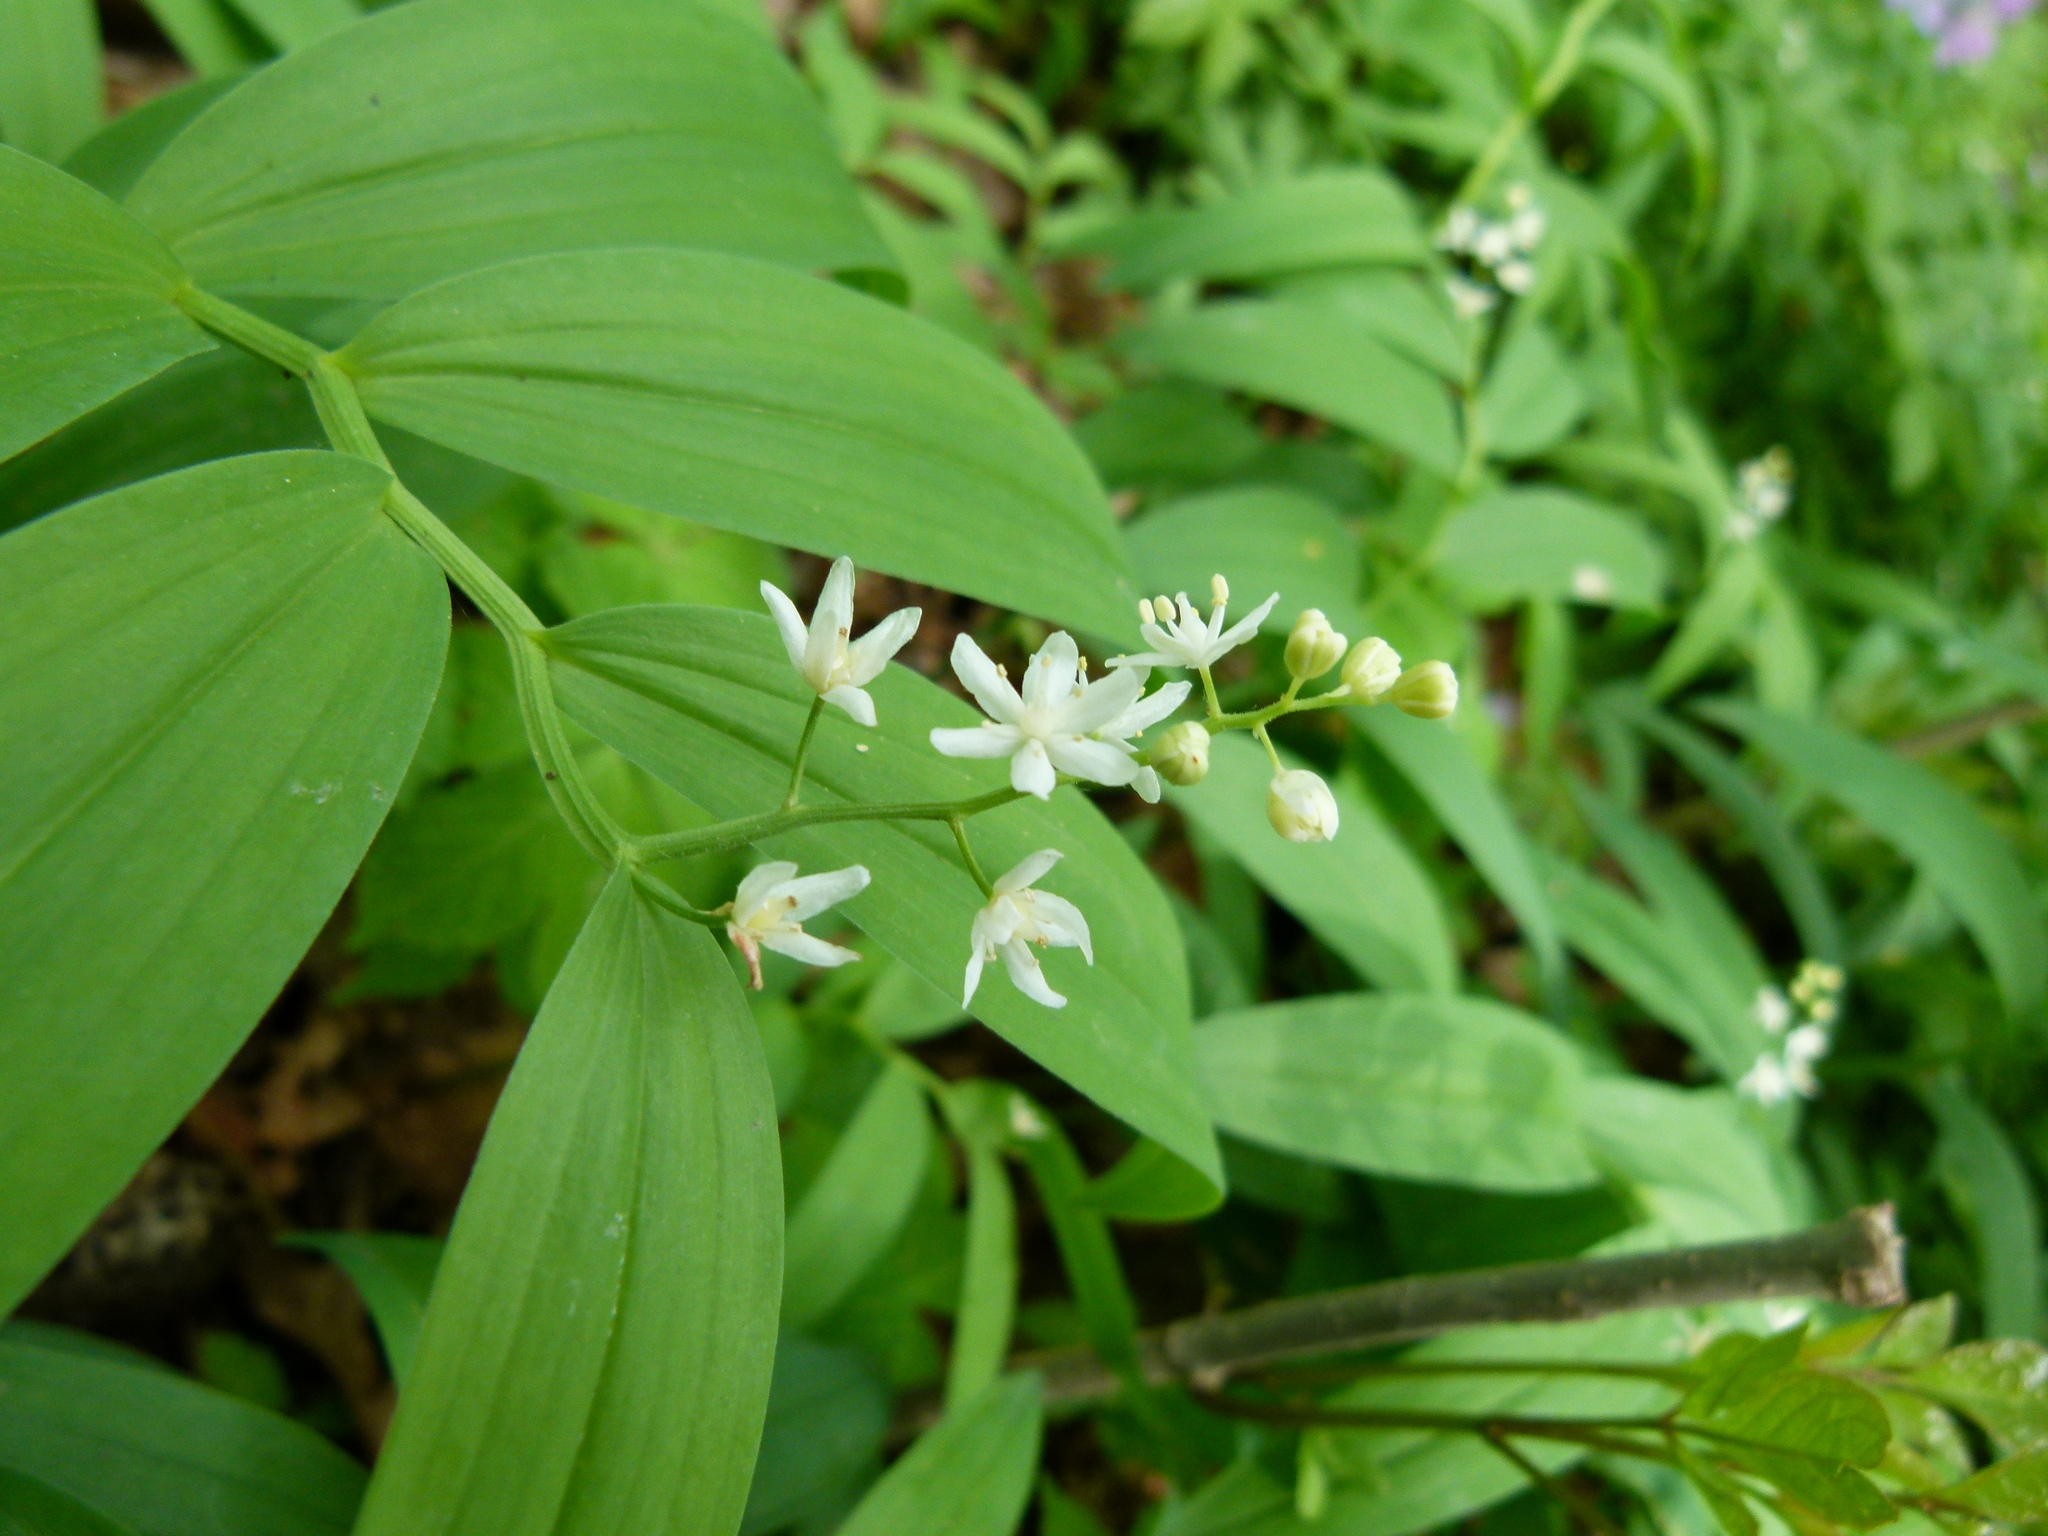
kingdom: Plantae
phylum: Tracheophyta
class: Liliopsida
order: Asparagales
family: Asparagaceae
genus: Maianthemum
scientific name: Maianthemum stellatum
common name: Little false solomon's seal
